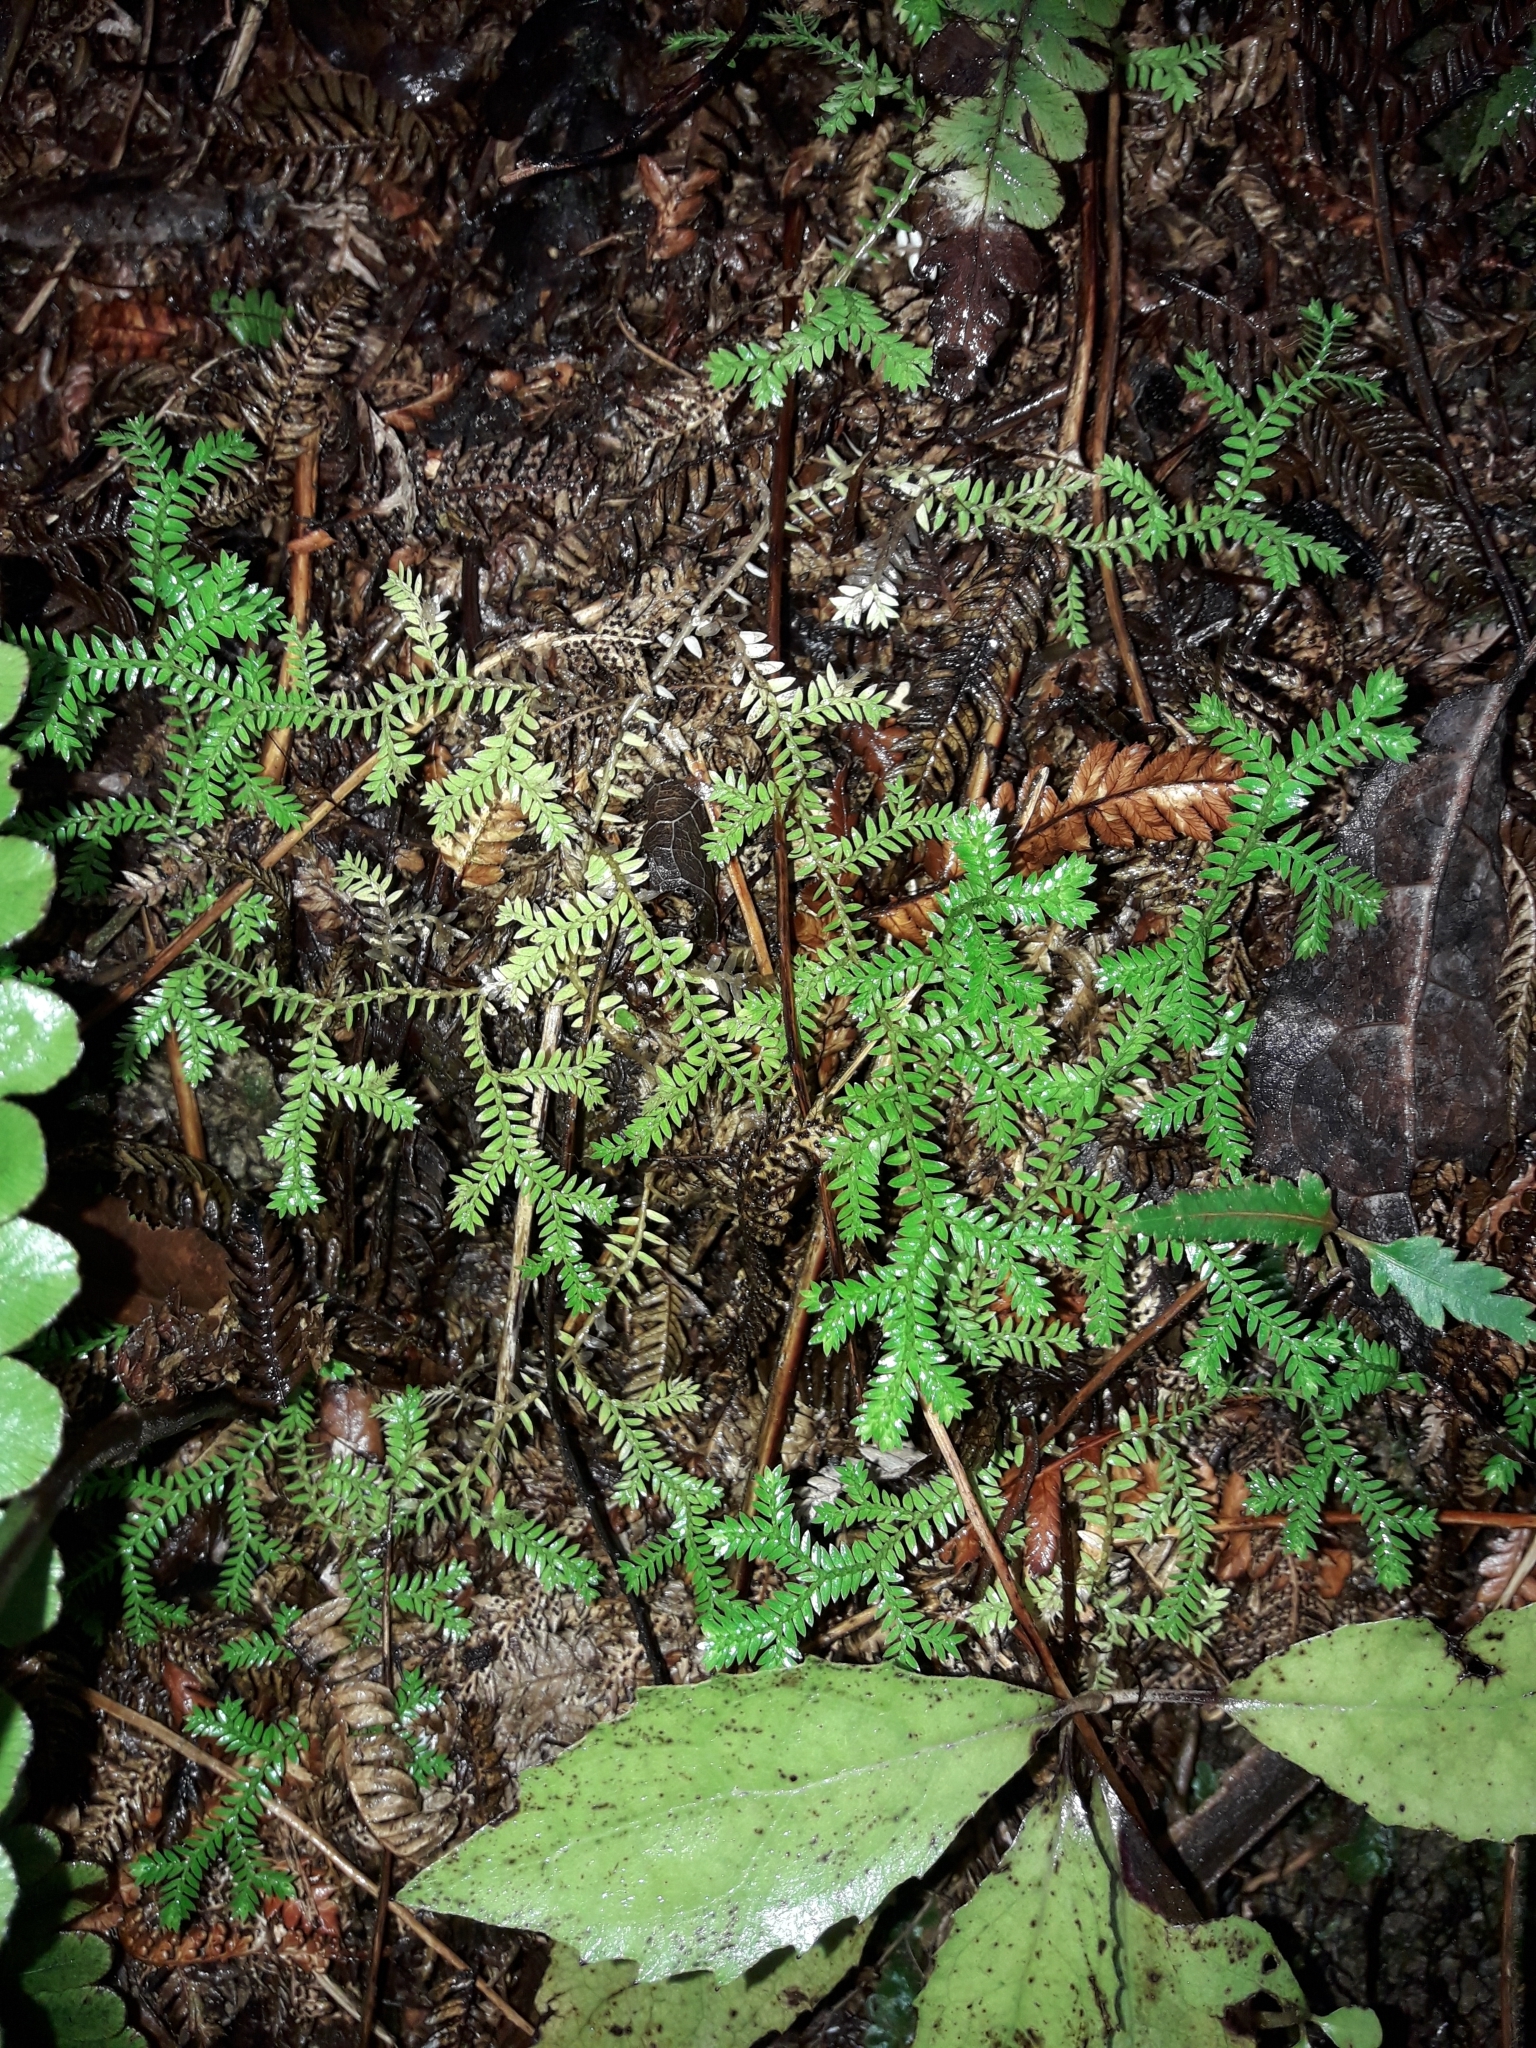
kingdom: Plantae
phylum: Tracheophyta
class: Lycopodiopsida
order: Selaginellales
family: Selaginellaceae
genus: Selaginella
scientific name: Selaginella kraussiana
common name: Krauss' spikemoss
